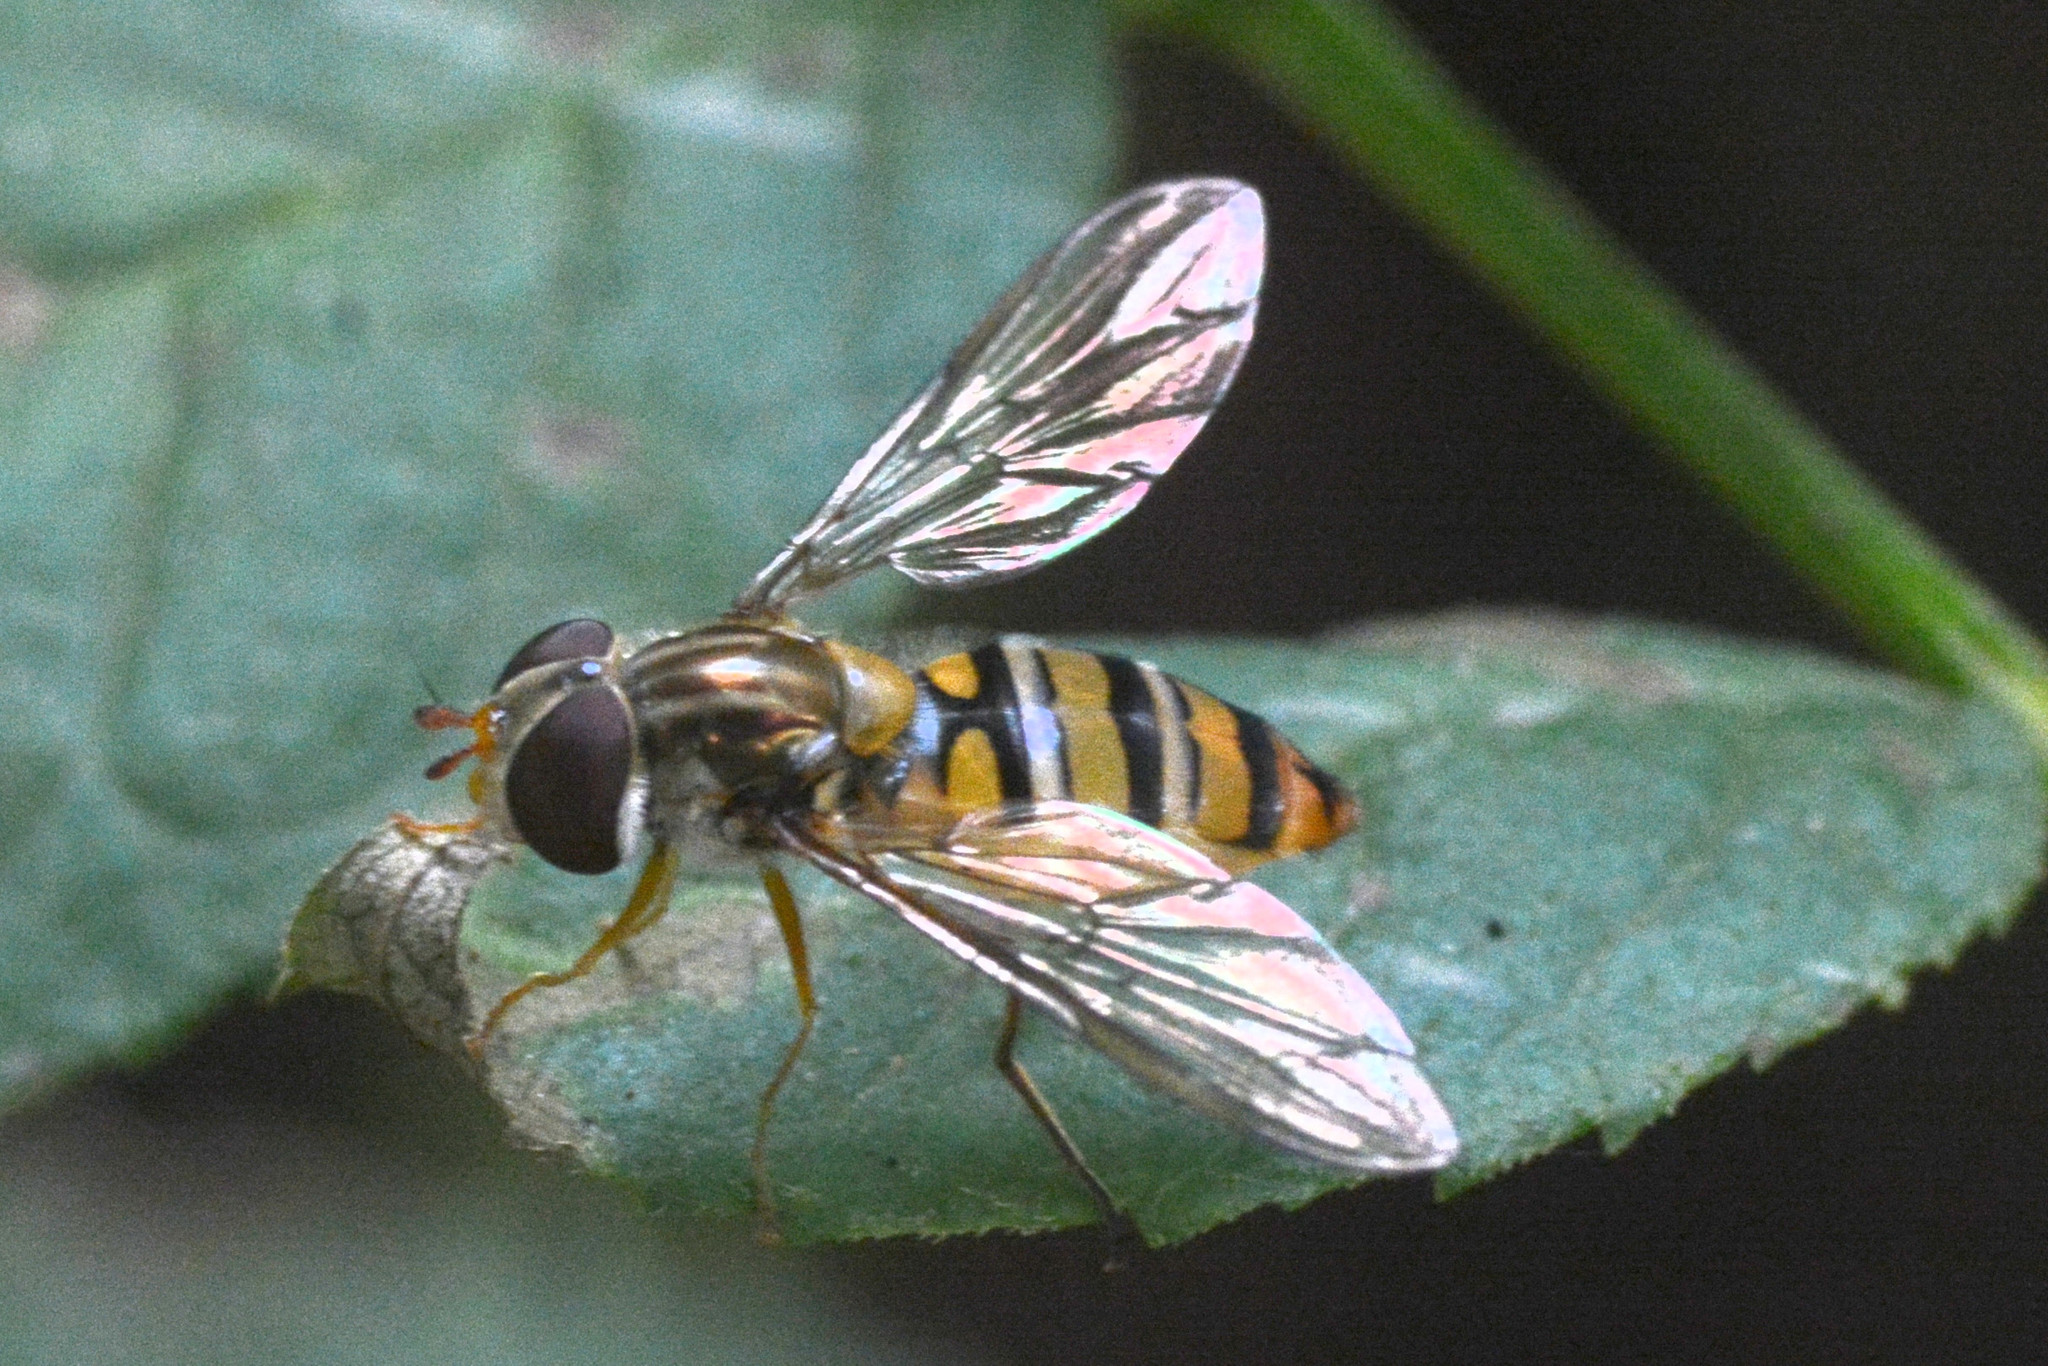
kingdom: Animalia
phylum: Arthropoda
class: Insecta
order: Diptera
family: Syrphidae
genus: Episyrphus
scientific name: Episyrphus balteatus
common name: Marmalade hoverfly
